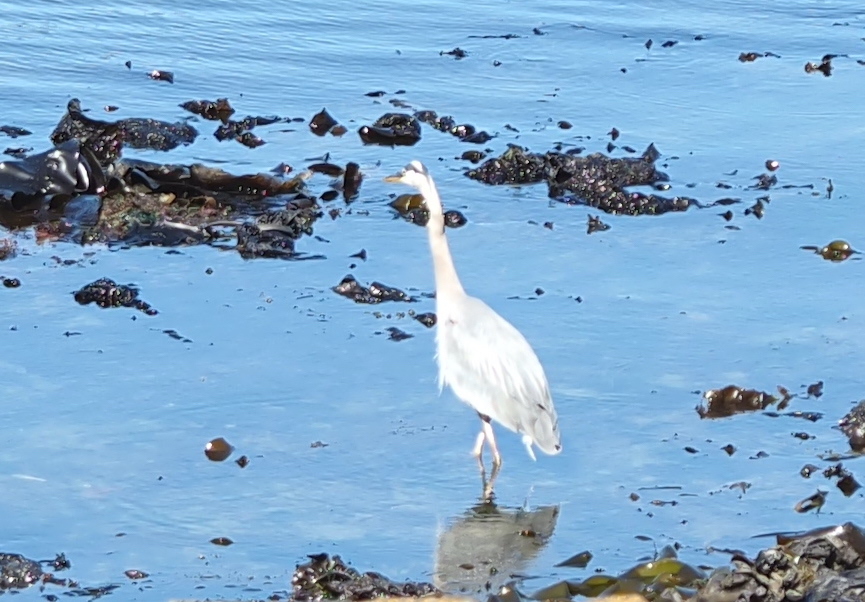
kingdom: Animalia
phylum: Chordata
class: Aves
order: Pelecaniformes
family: Ardeidae
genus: Ardea
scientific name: Ardea herodias
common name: Great blue heron
